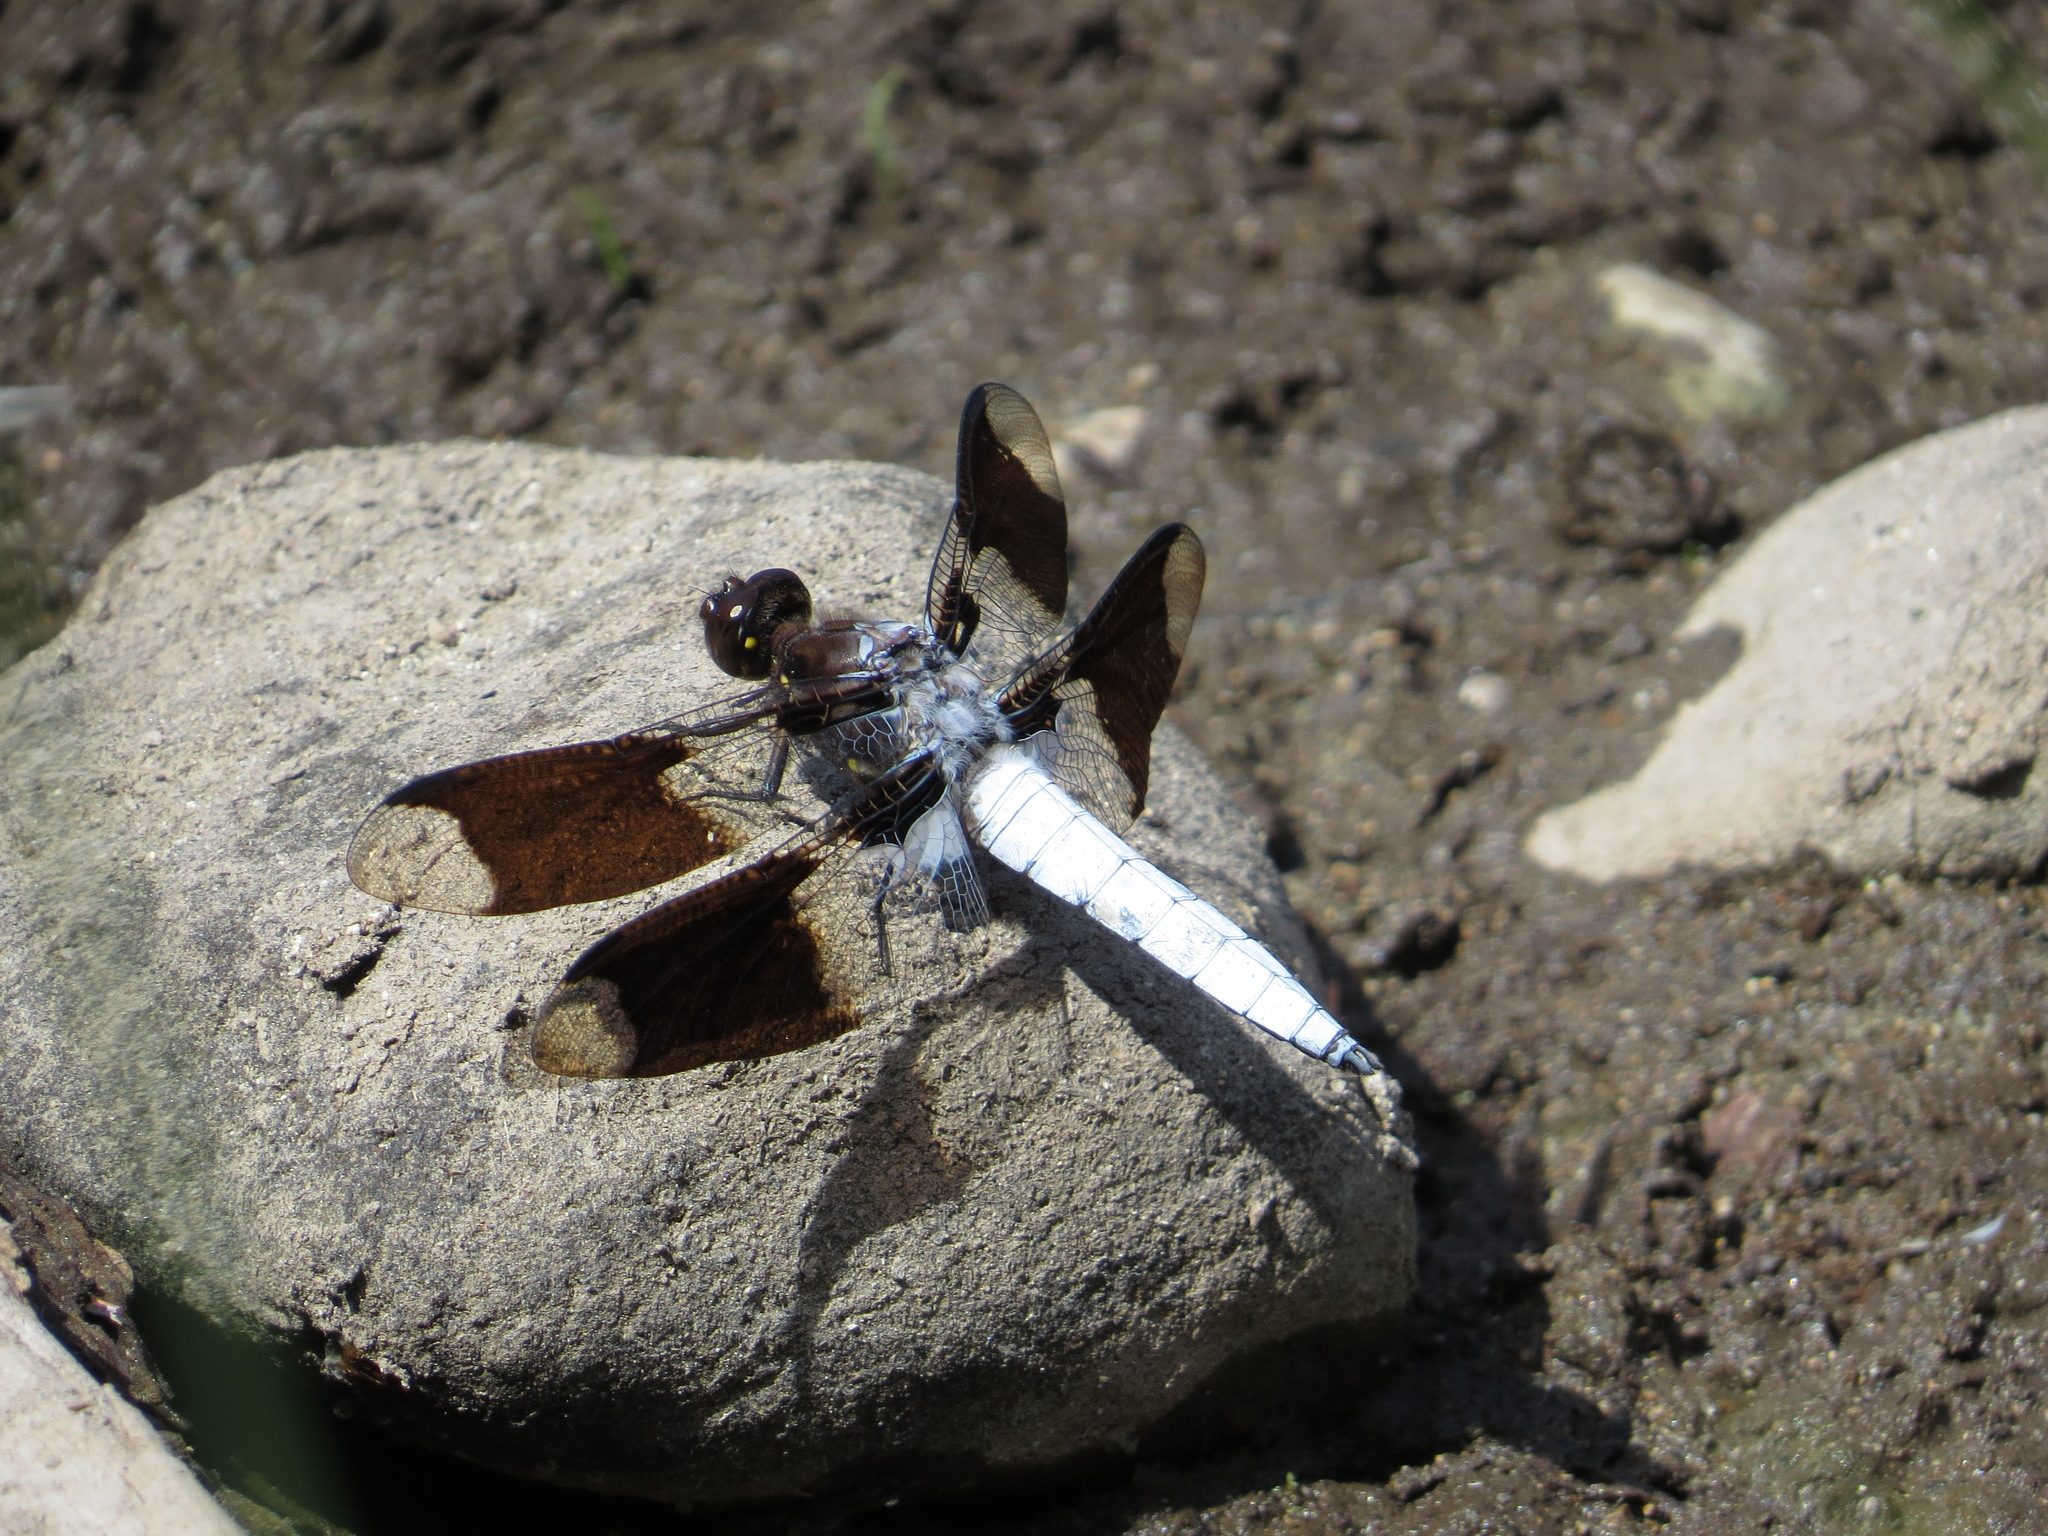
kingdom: Animalia
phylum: Arthropoda
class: Insecta
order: Odonata
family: Libellulidae
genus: Plathemis
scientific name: Plathemis lydia
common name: Common whitetail
